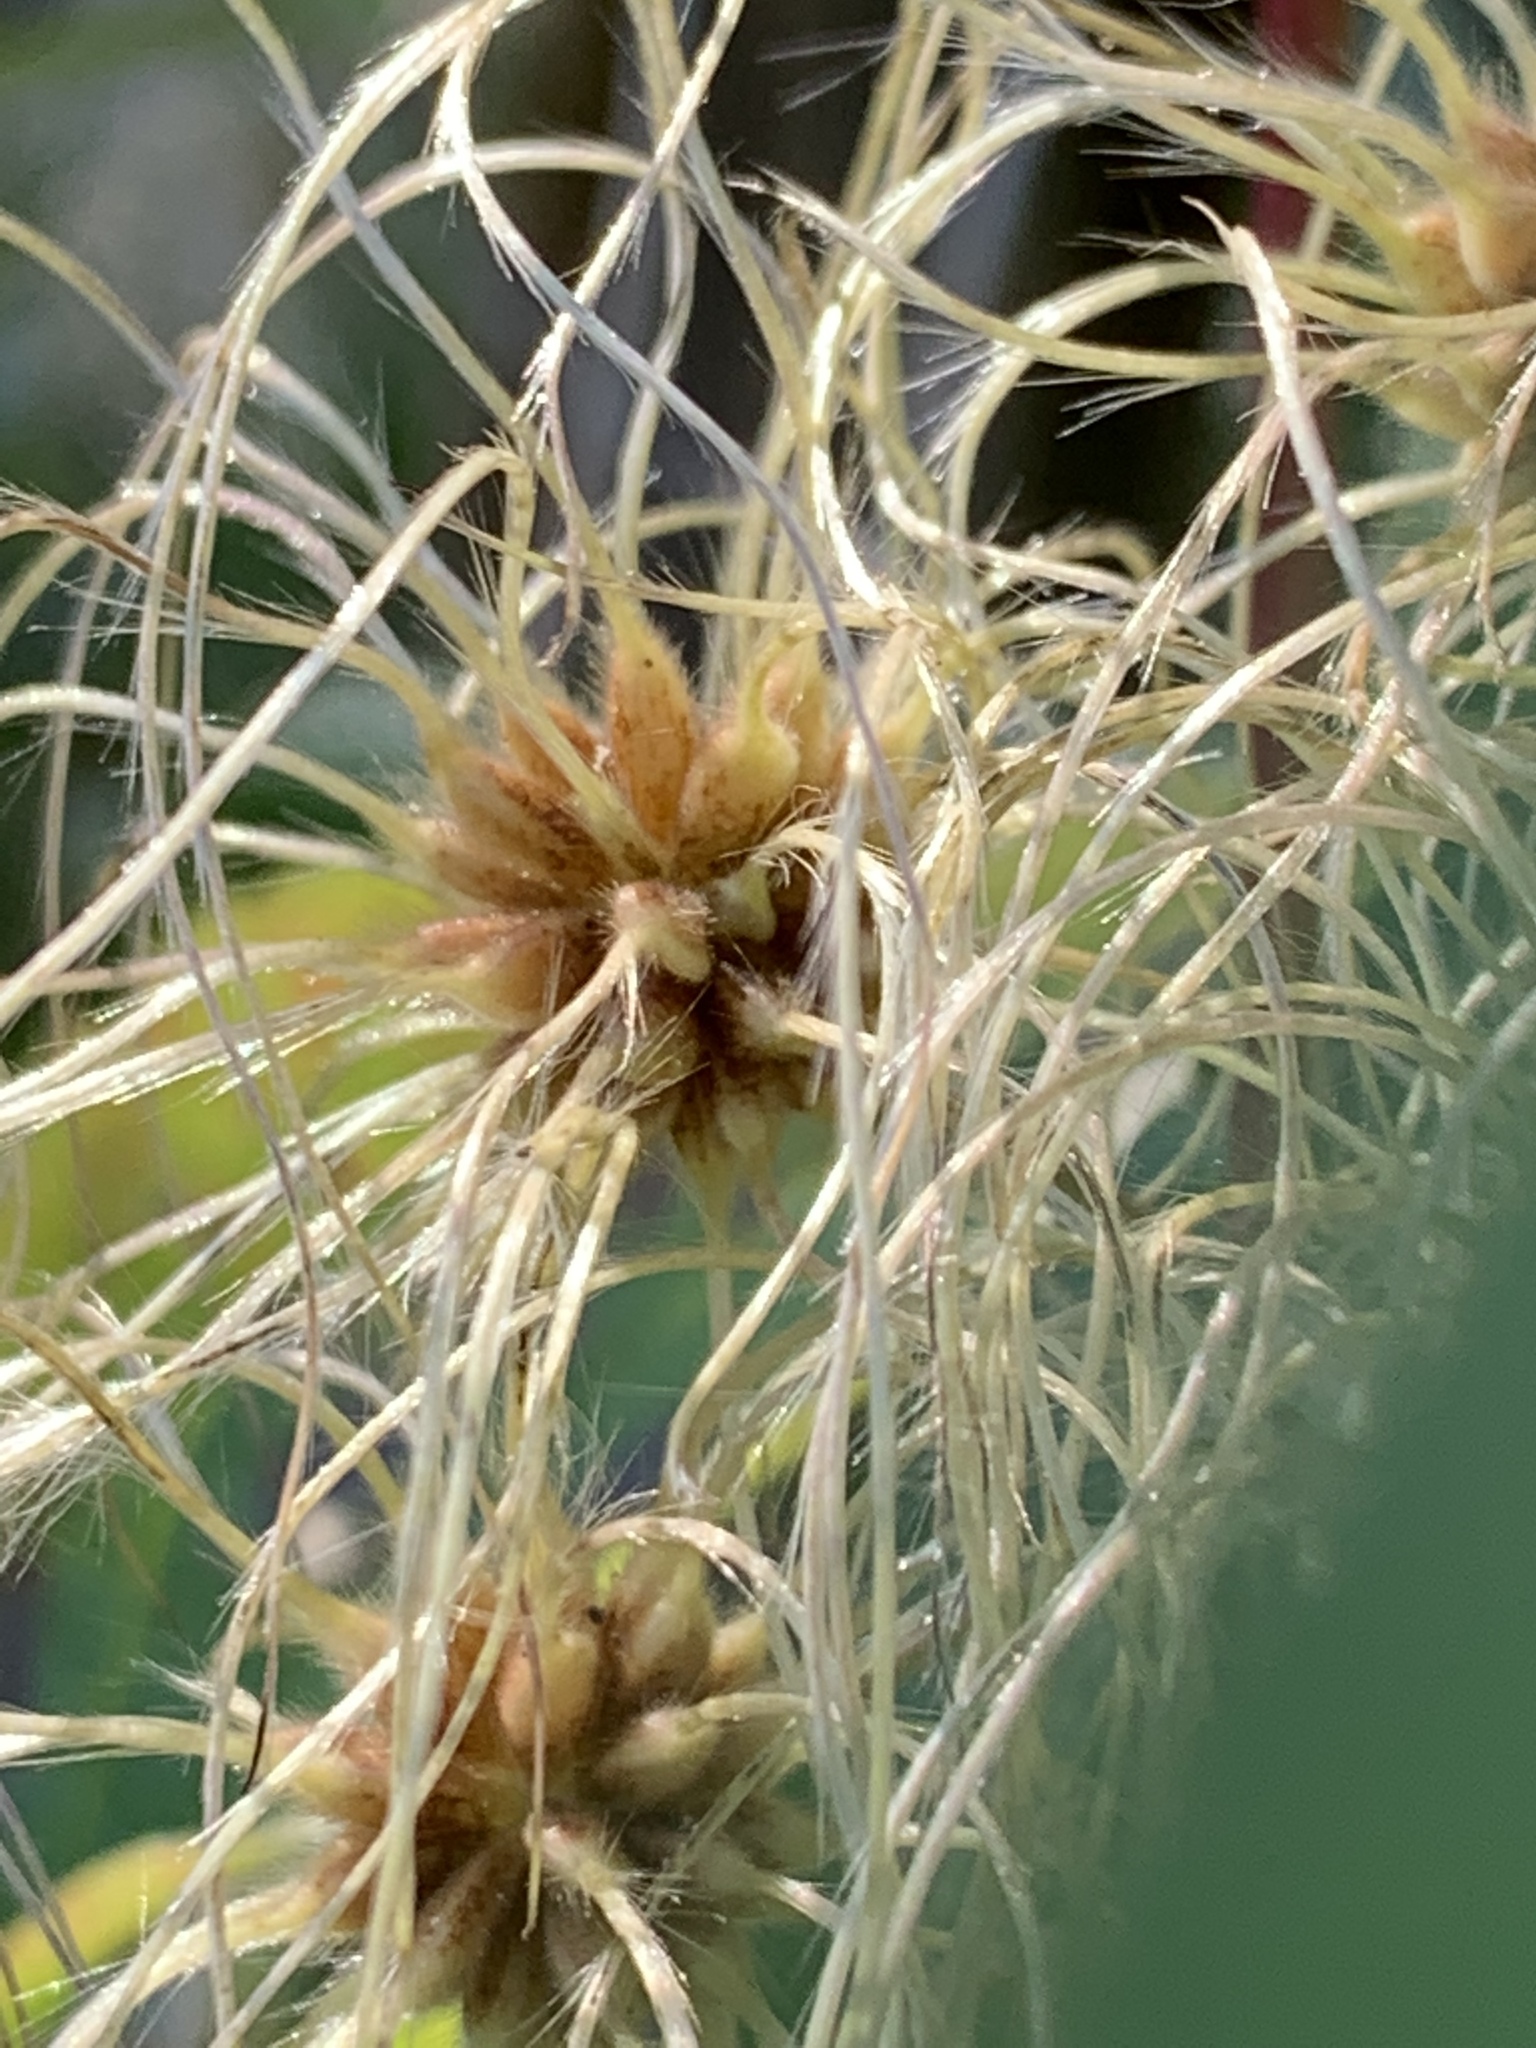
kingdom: Plantae
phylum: Tracheophyta
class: Magnoliopsida
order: Ranunculales
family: Ranunculaceae
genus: Clematis
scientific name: Clematis virginiana
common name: Virgin's-bower
